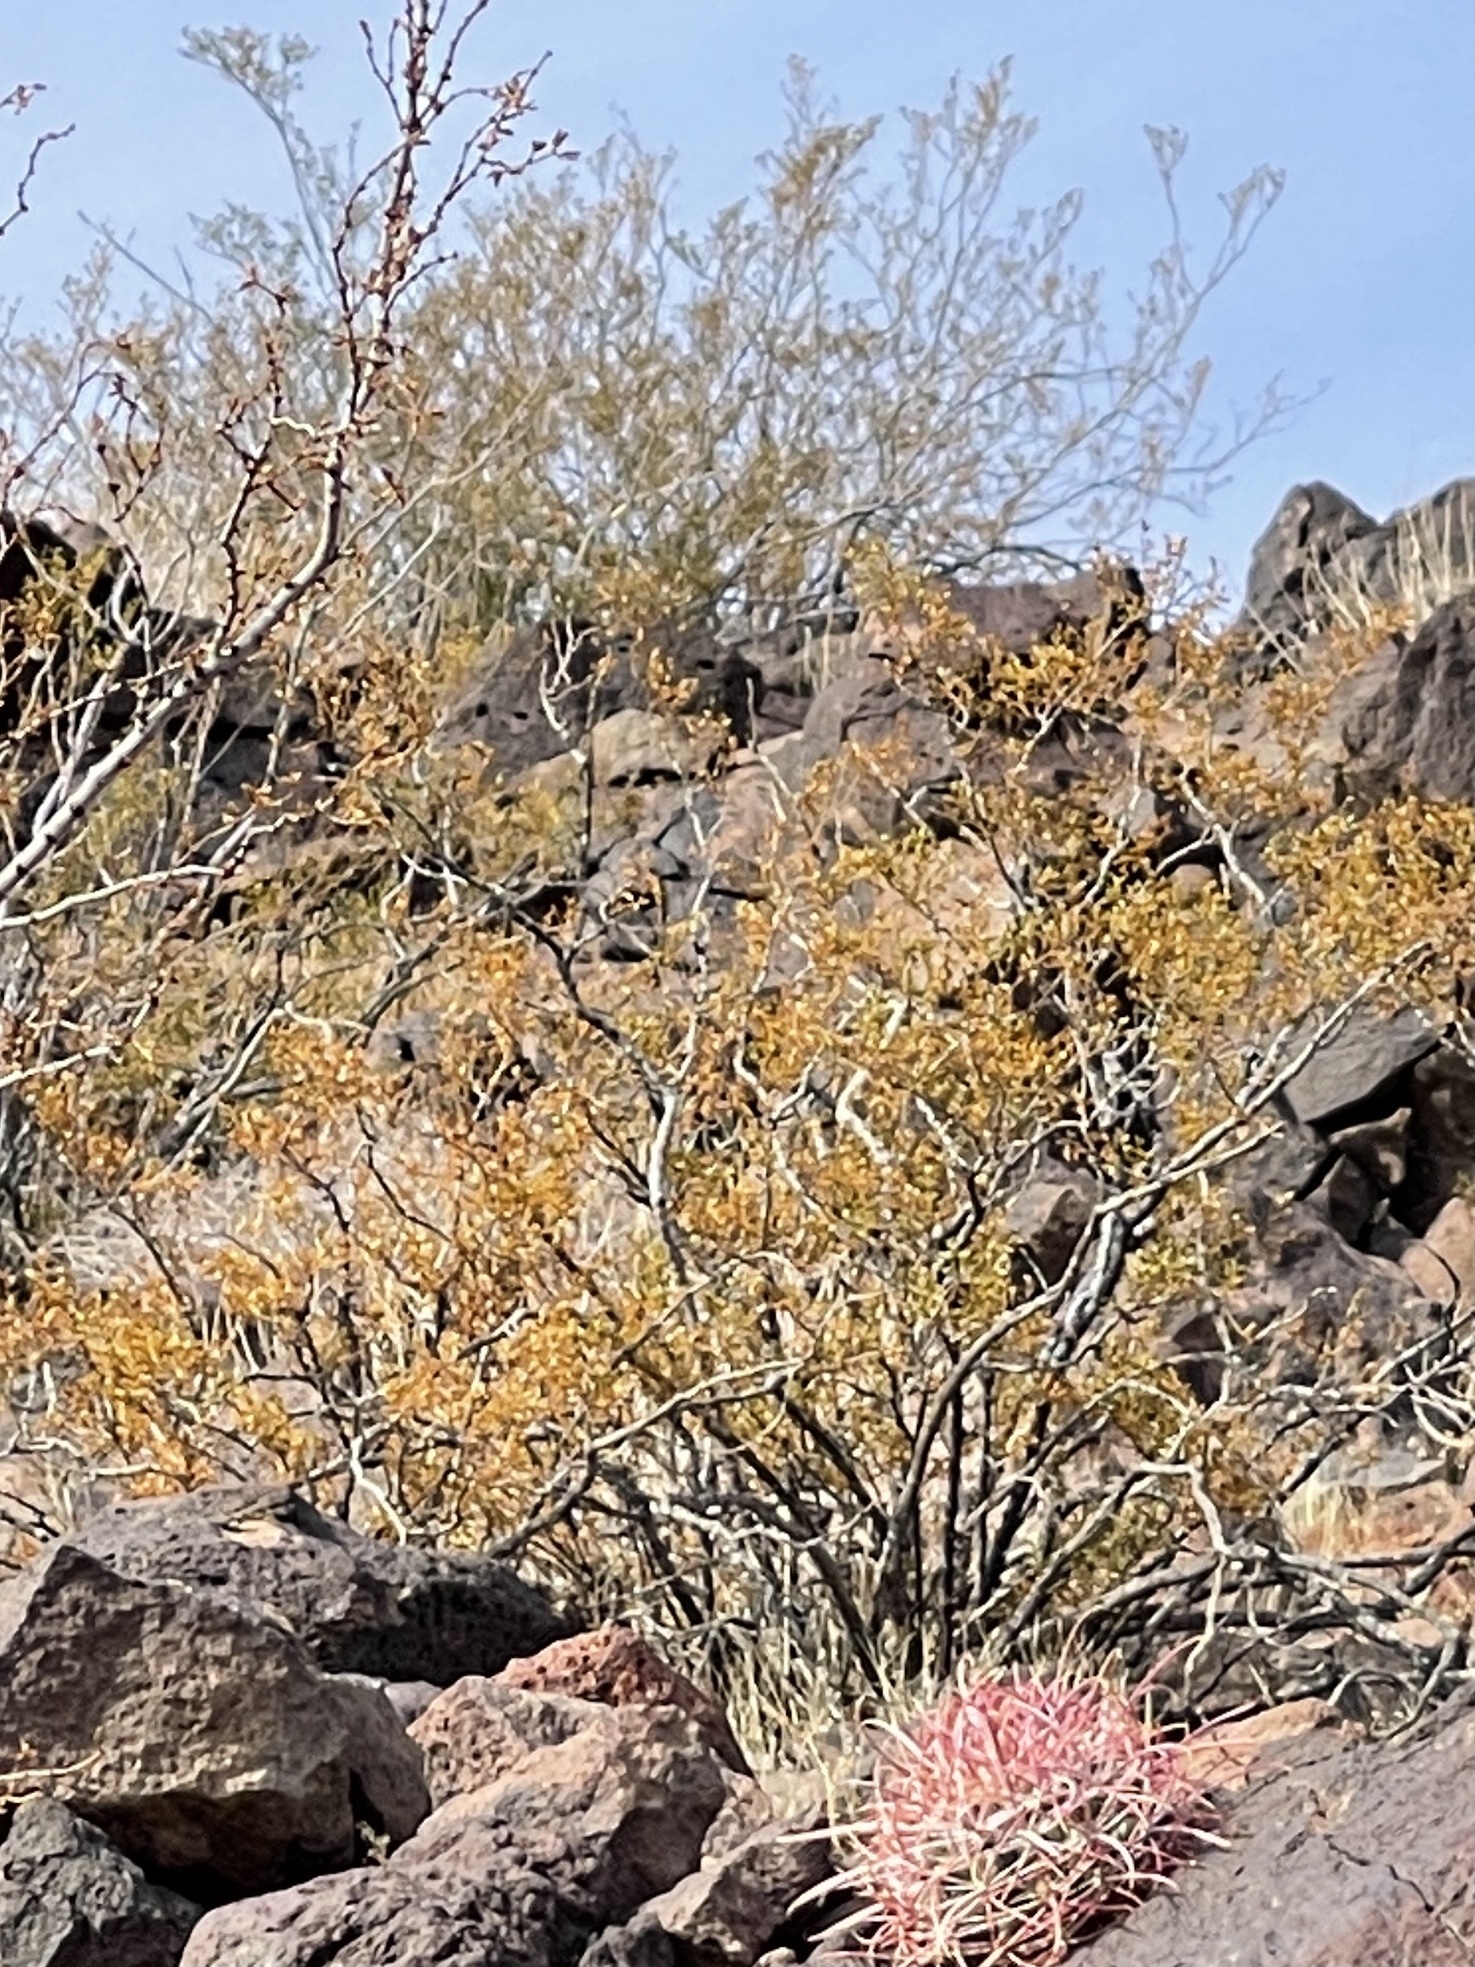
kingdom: Plantae
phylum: Tracheophyta
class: Magnoliopsida
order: Zygophyllales
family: Zygophyllaceae
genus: Larrea
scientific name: Larrea tridentata
